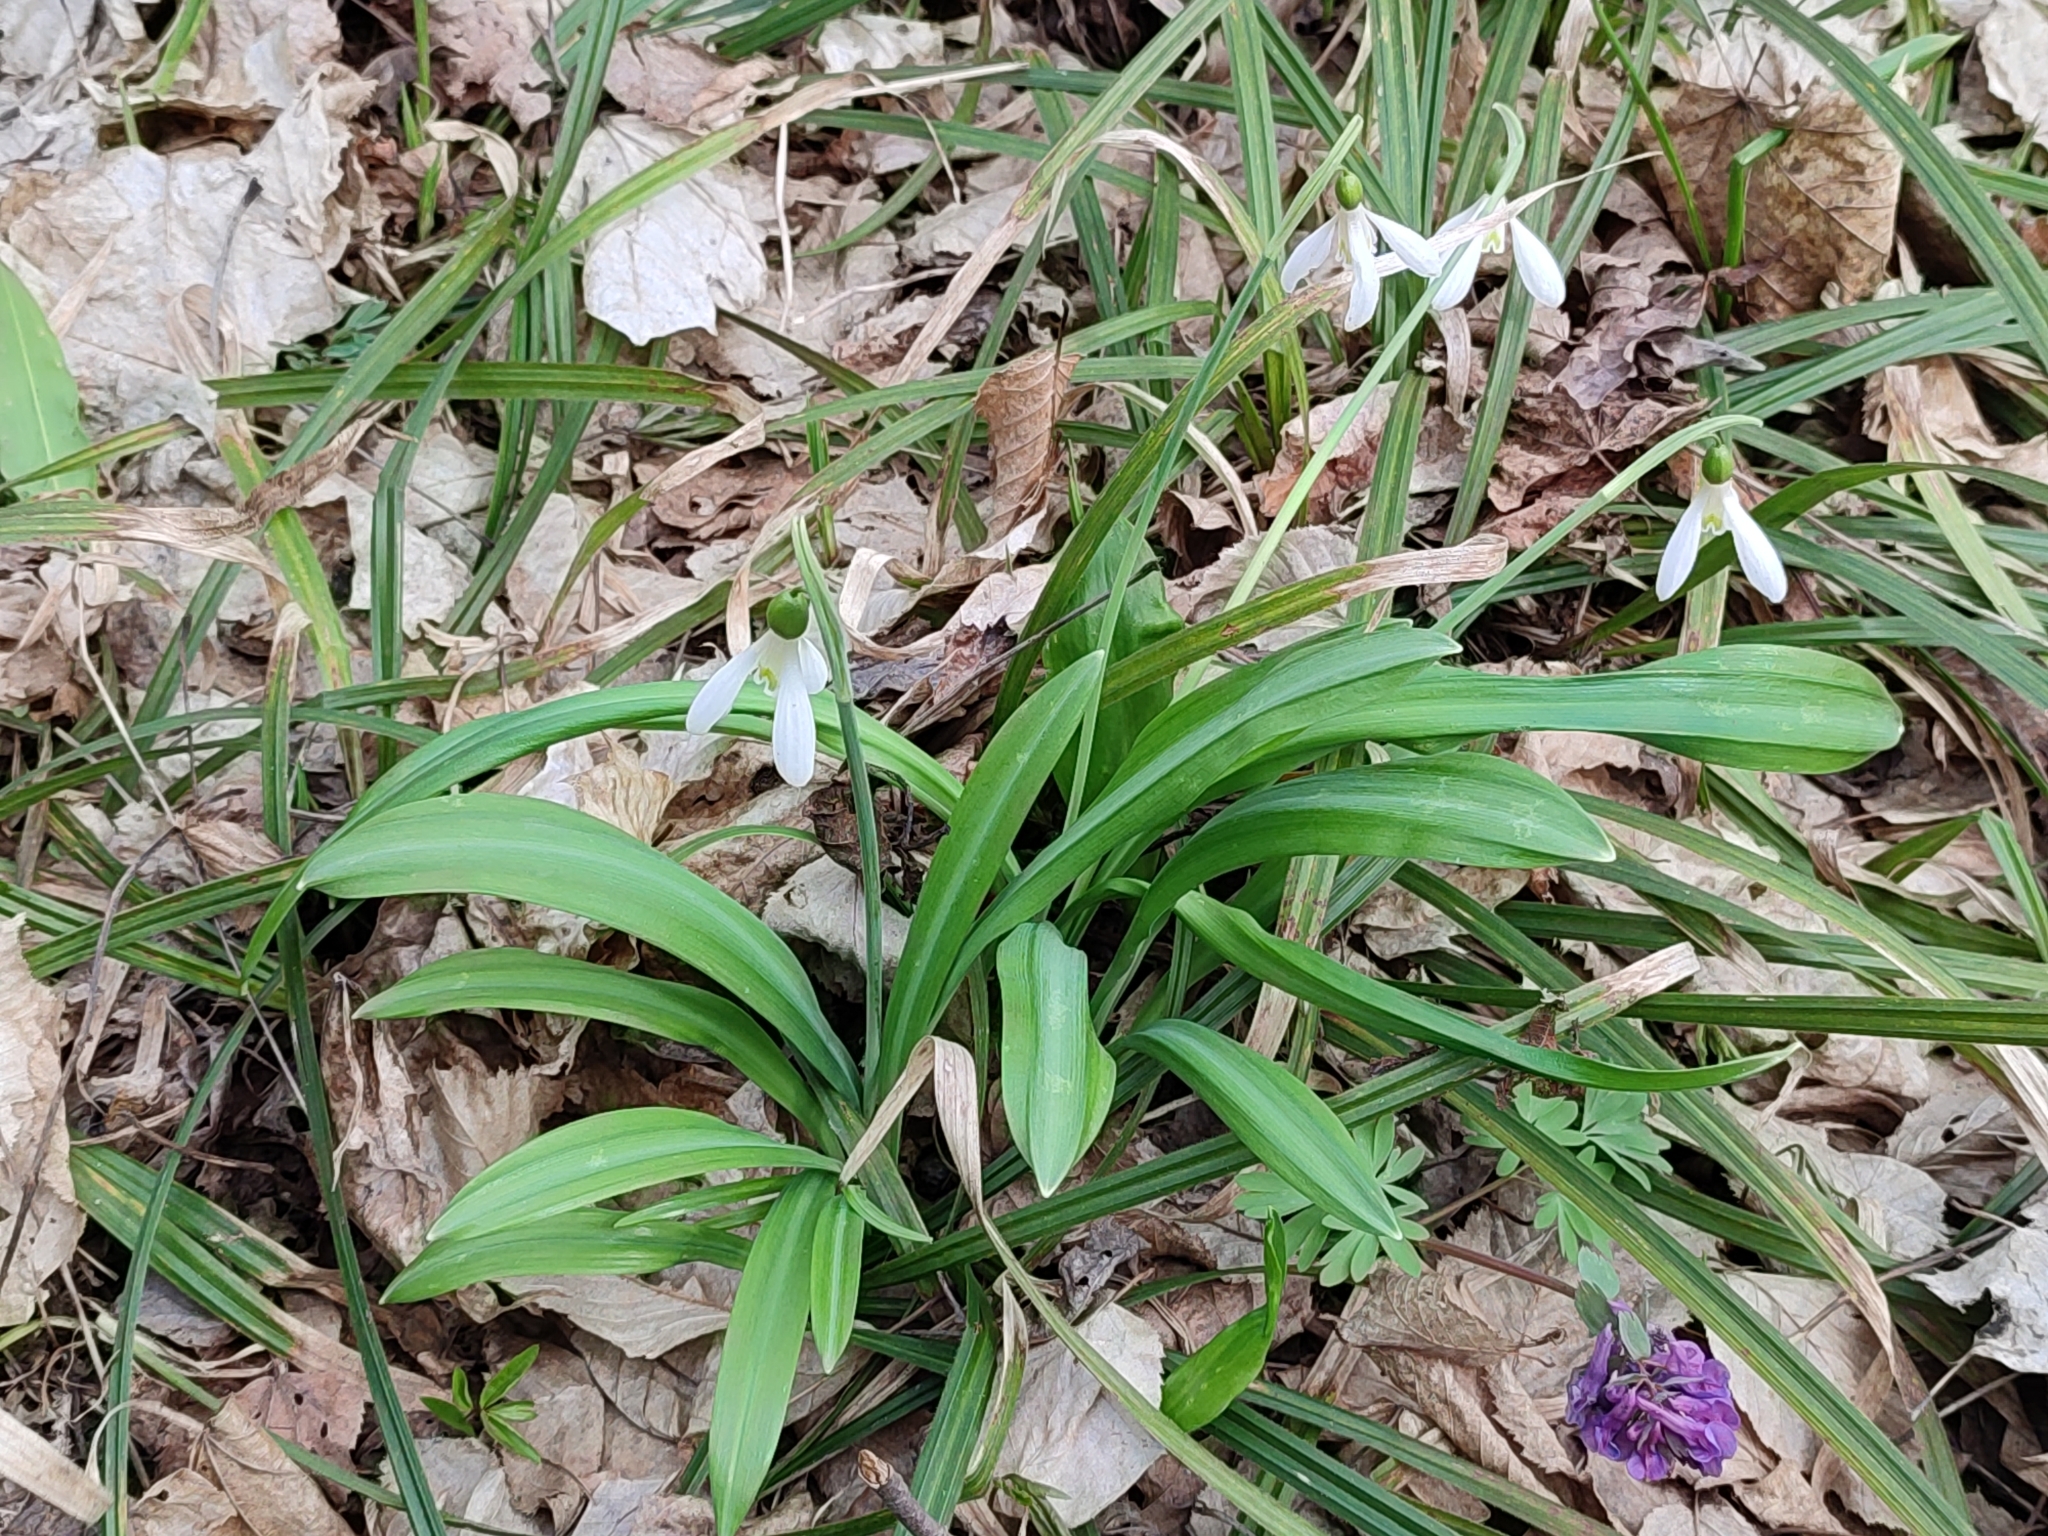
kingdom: Plantae
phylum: Tracheophyta
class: Liliopsida
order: Asparagales
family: Amaryllidaceae
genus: Galanthus
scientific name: Galanthus plicatus
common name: Pleated snowdrop
